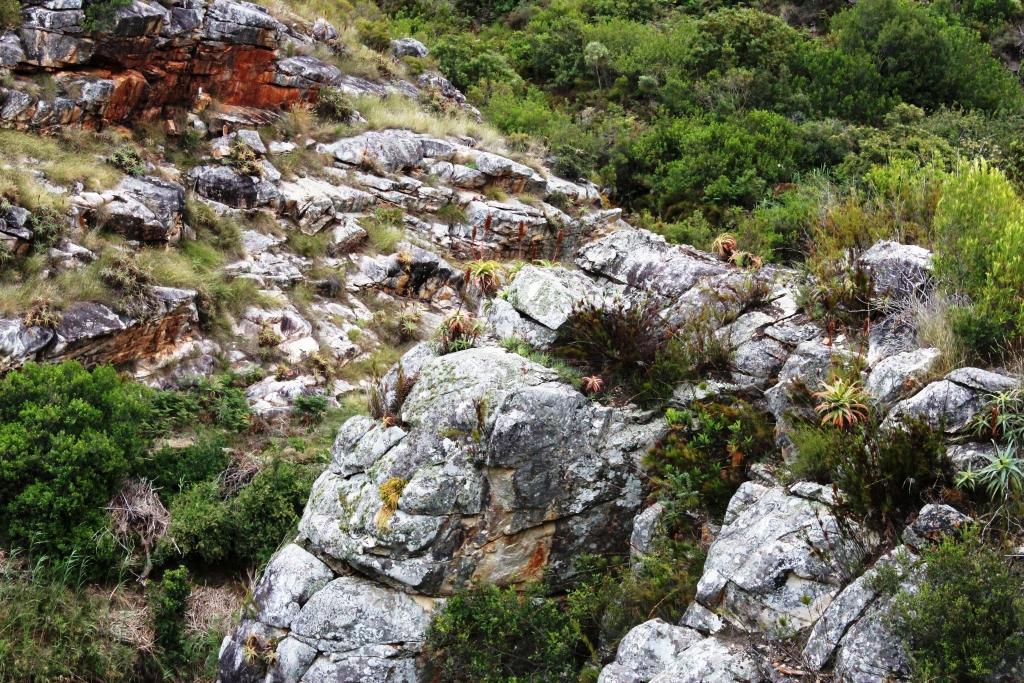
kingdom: Plantae
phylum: Tracheophyta
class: Liliopsida
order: Asparagales
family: Asphodelaceae
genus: Aloe
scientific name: Aloe arborescens
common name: Candelabra aloe
